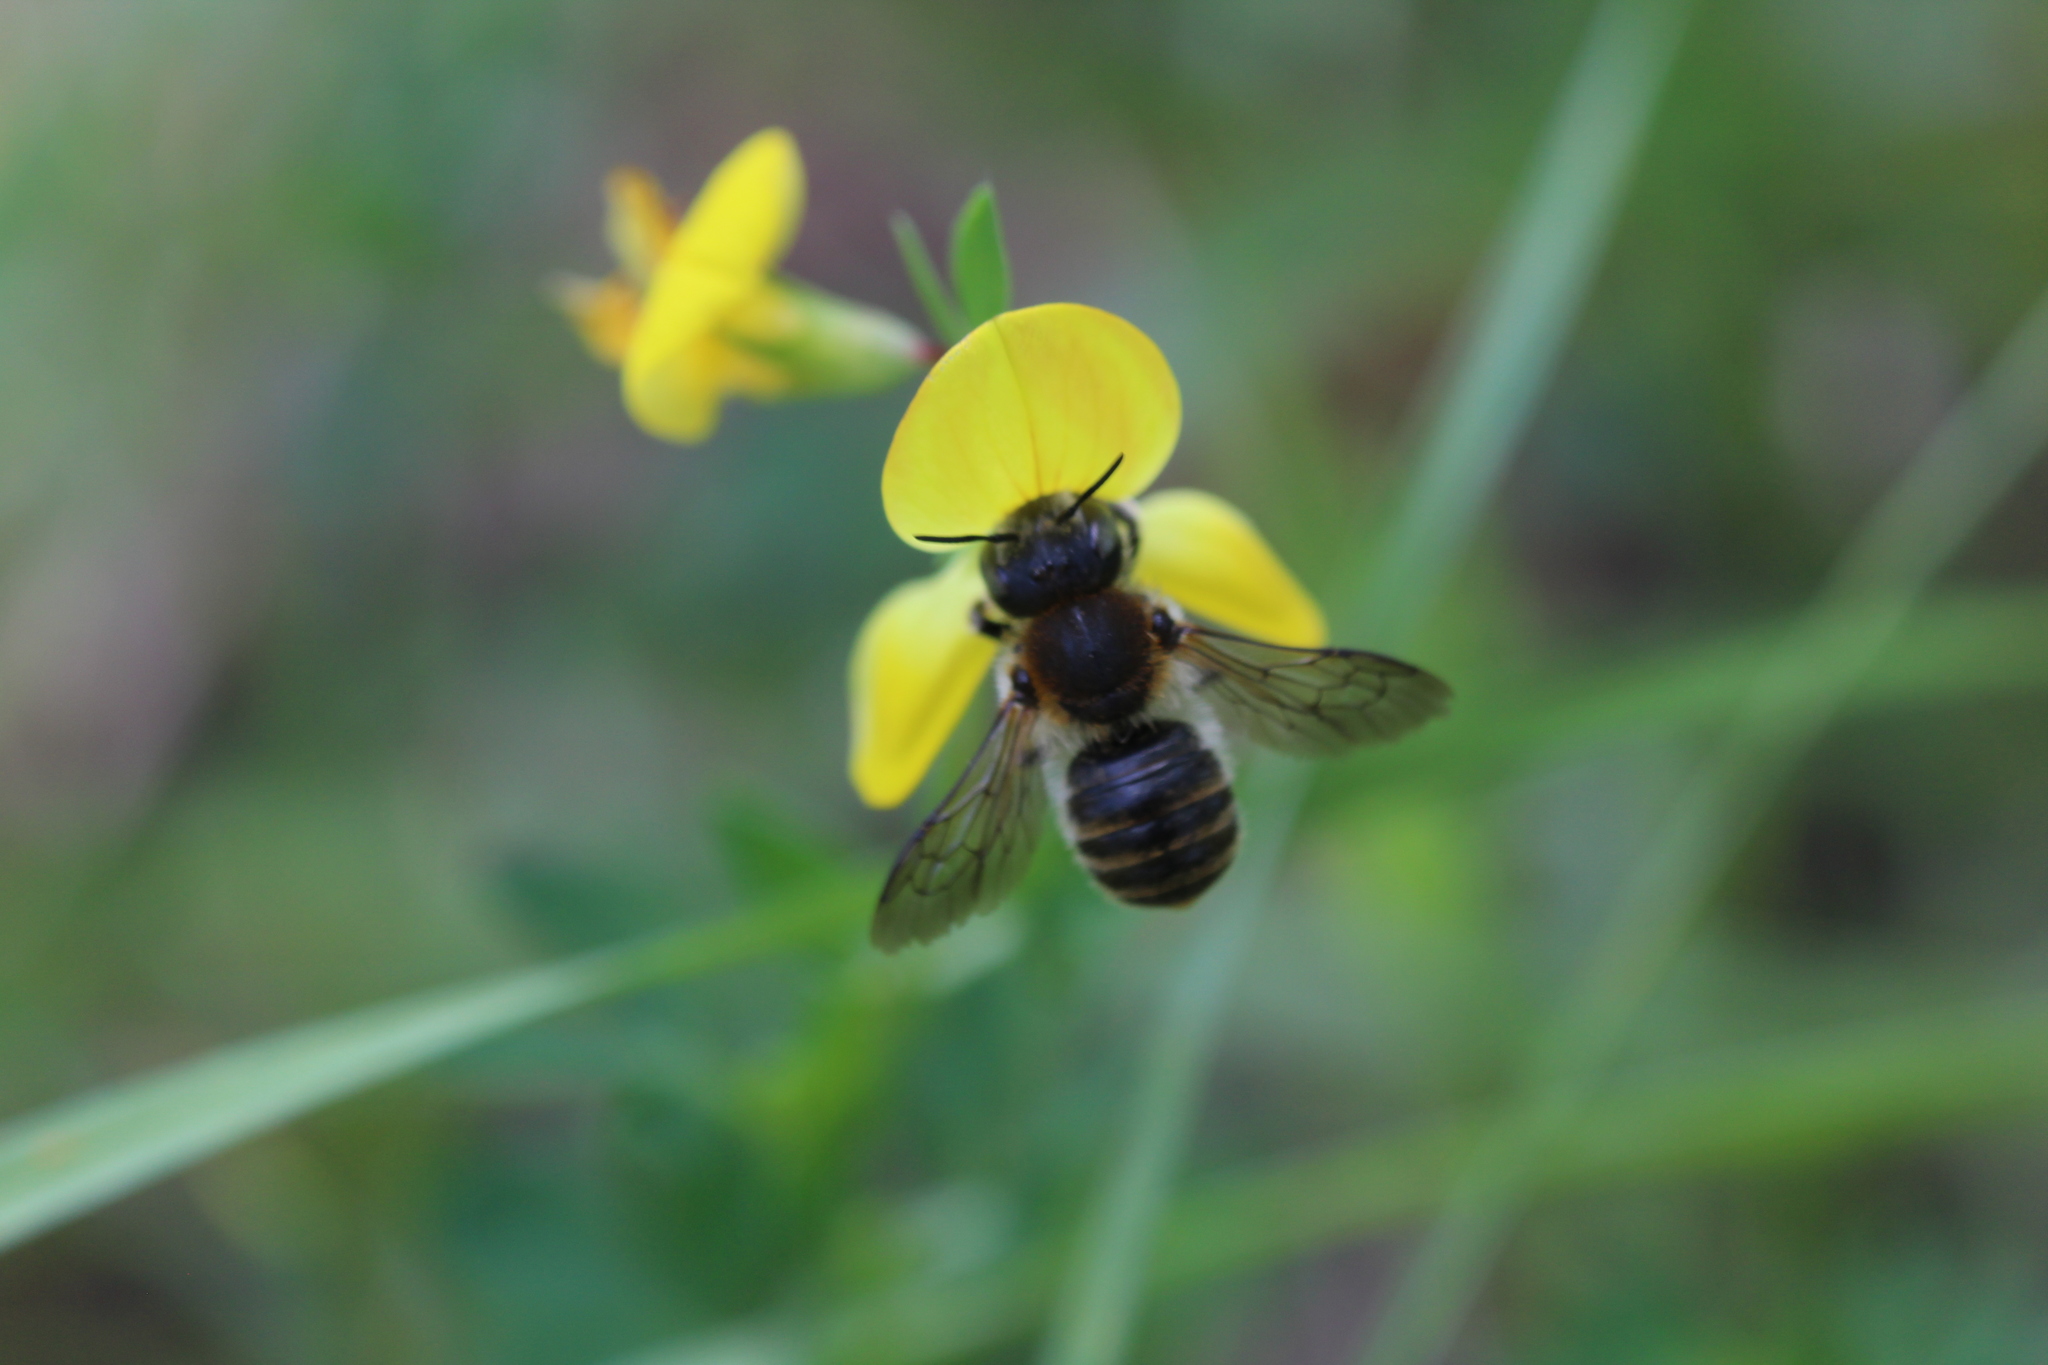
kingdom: Animalia
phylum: Arthropoda
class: Insecta
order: Hymenoptera
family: Megachilidae
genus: Trachusa
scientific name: Trachusa byssina
